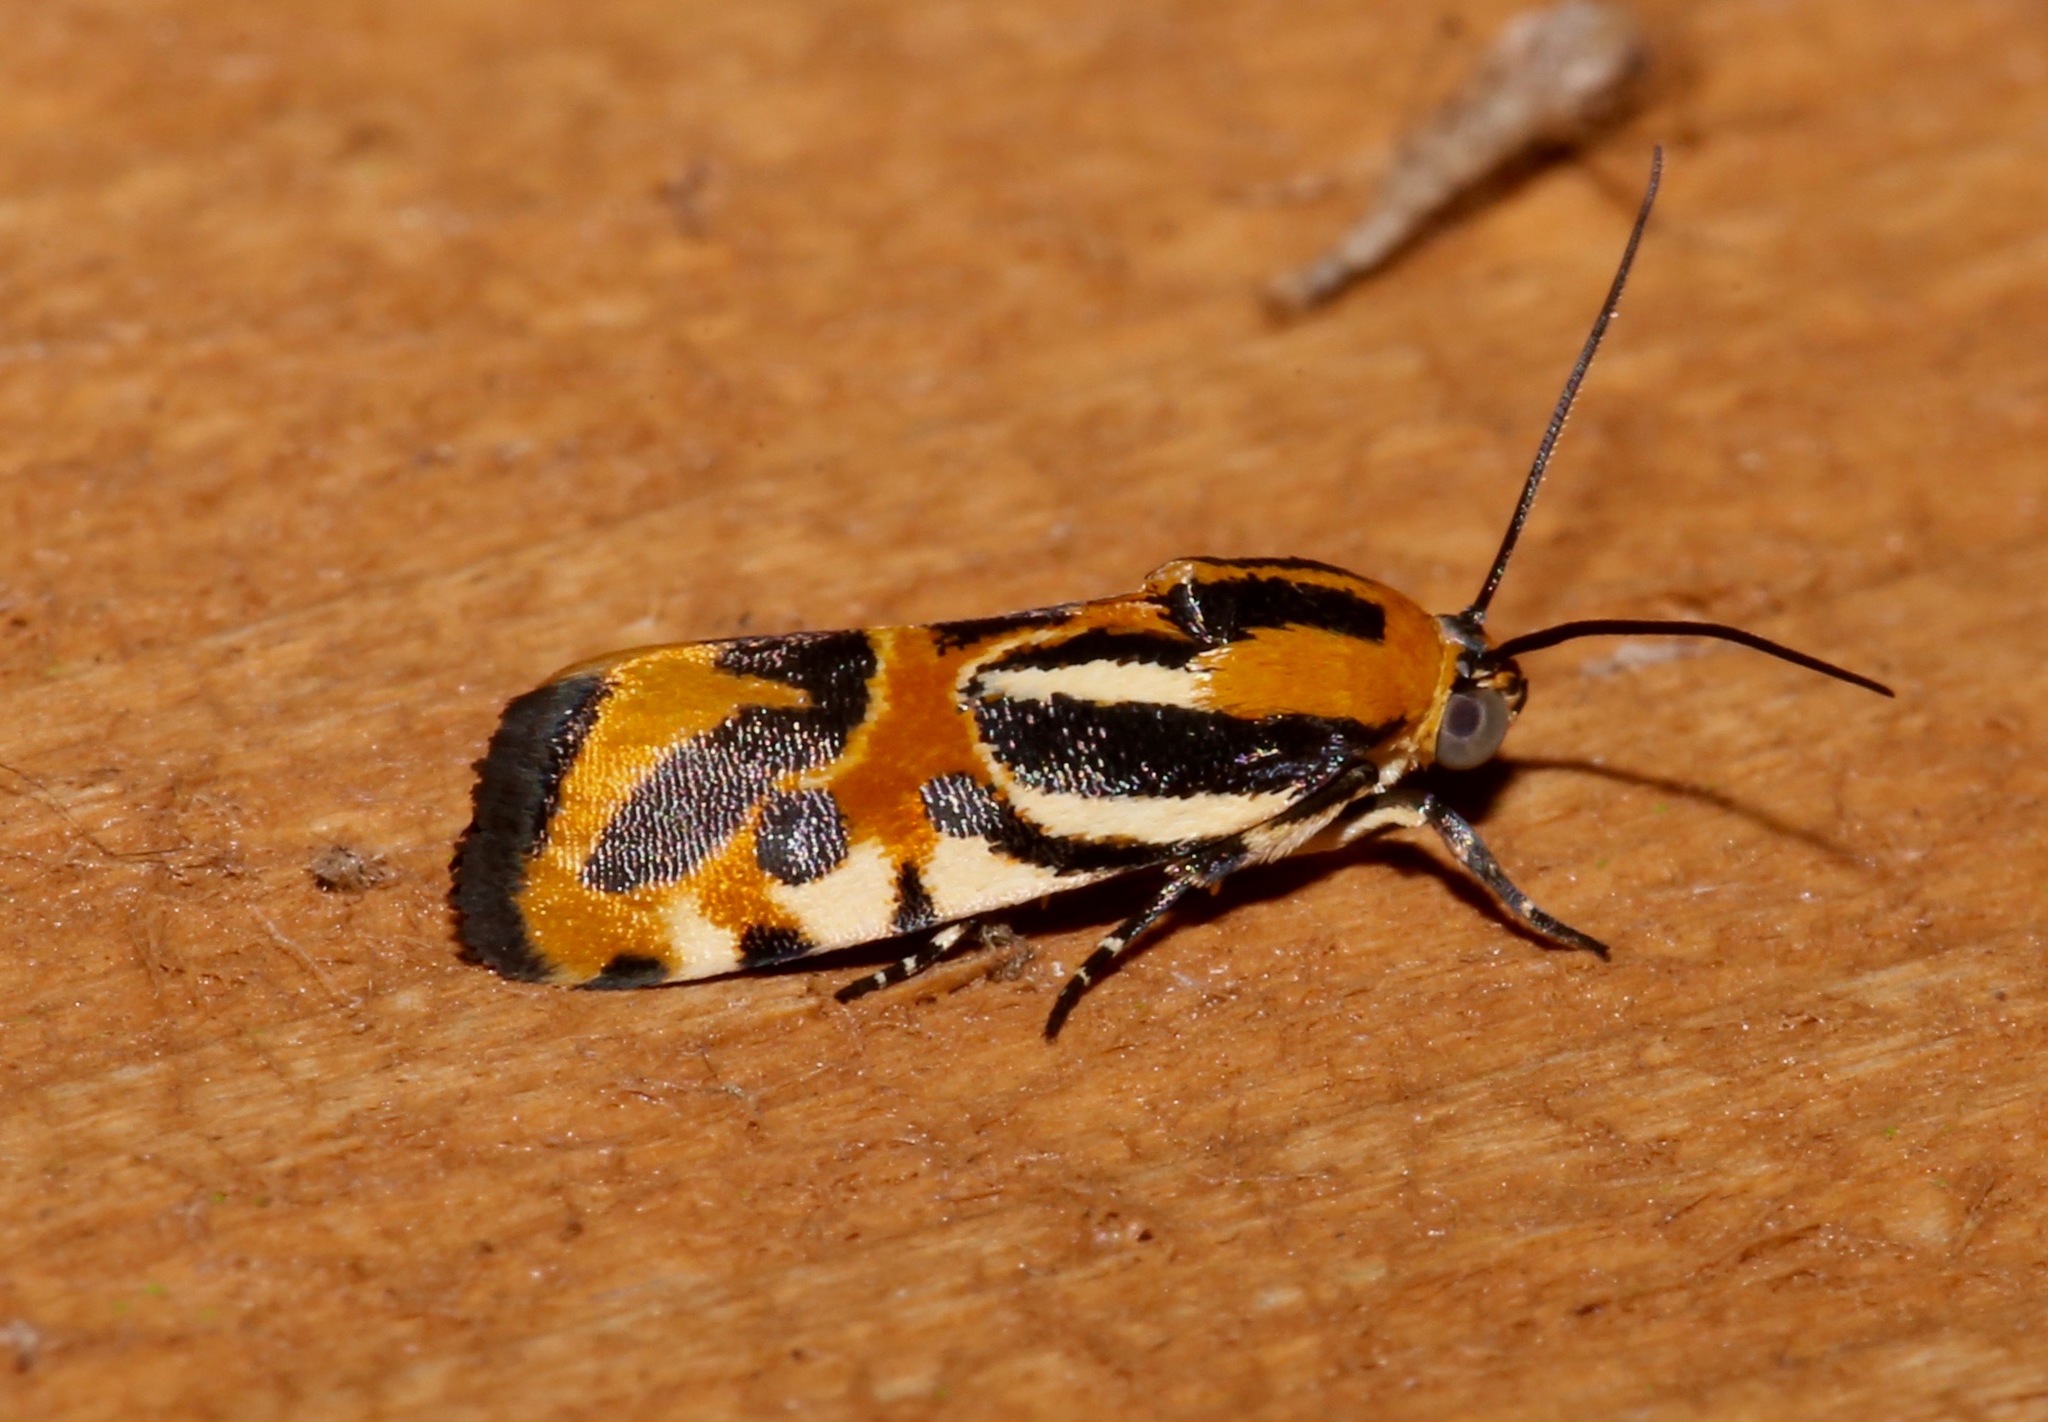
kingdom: Animalia
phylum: Arthropoda
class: Insecta
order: Lepidoptera
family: Noctuidae
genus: Acontia
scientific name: Acontia onagrus
